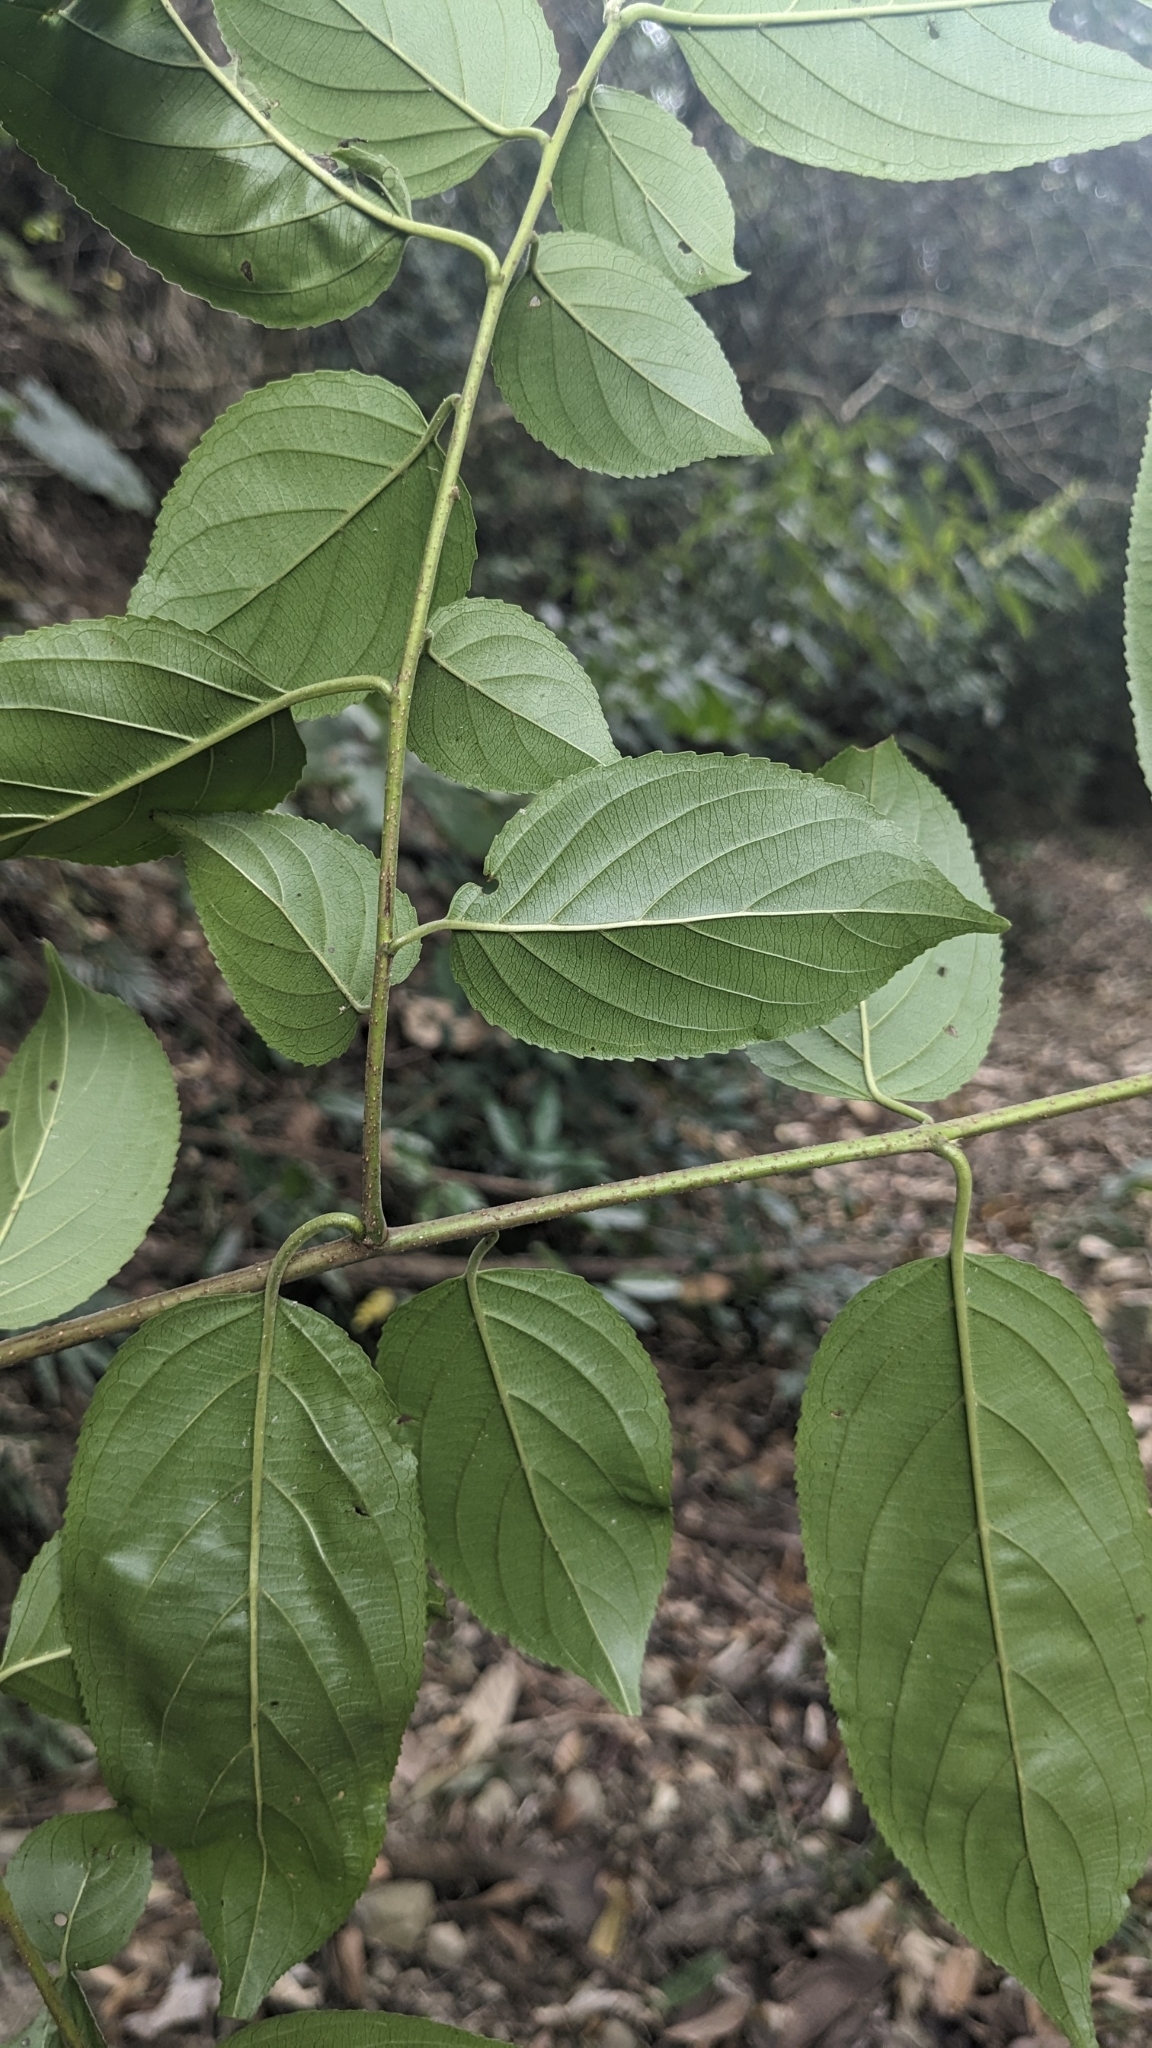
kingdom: Plantae
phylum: Tracheophyta
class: Magnoliopsida
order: Rosales
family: Rhamnaceae
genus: Rhamnus
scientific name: Rhamnus formosana
